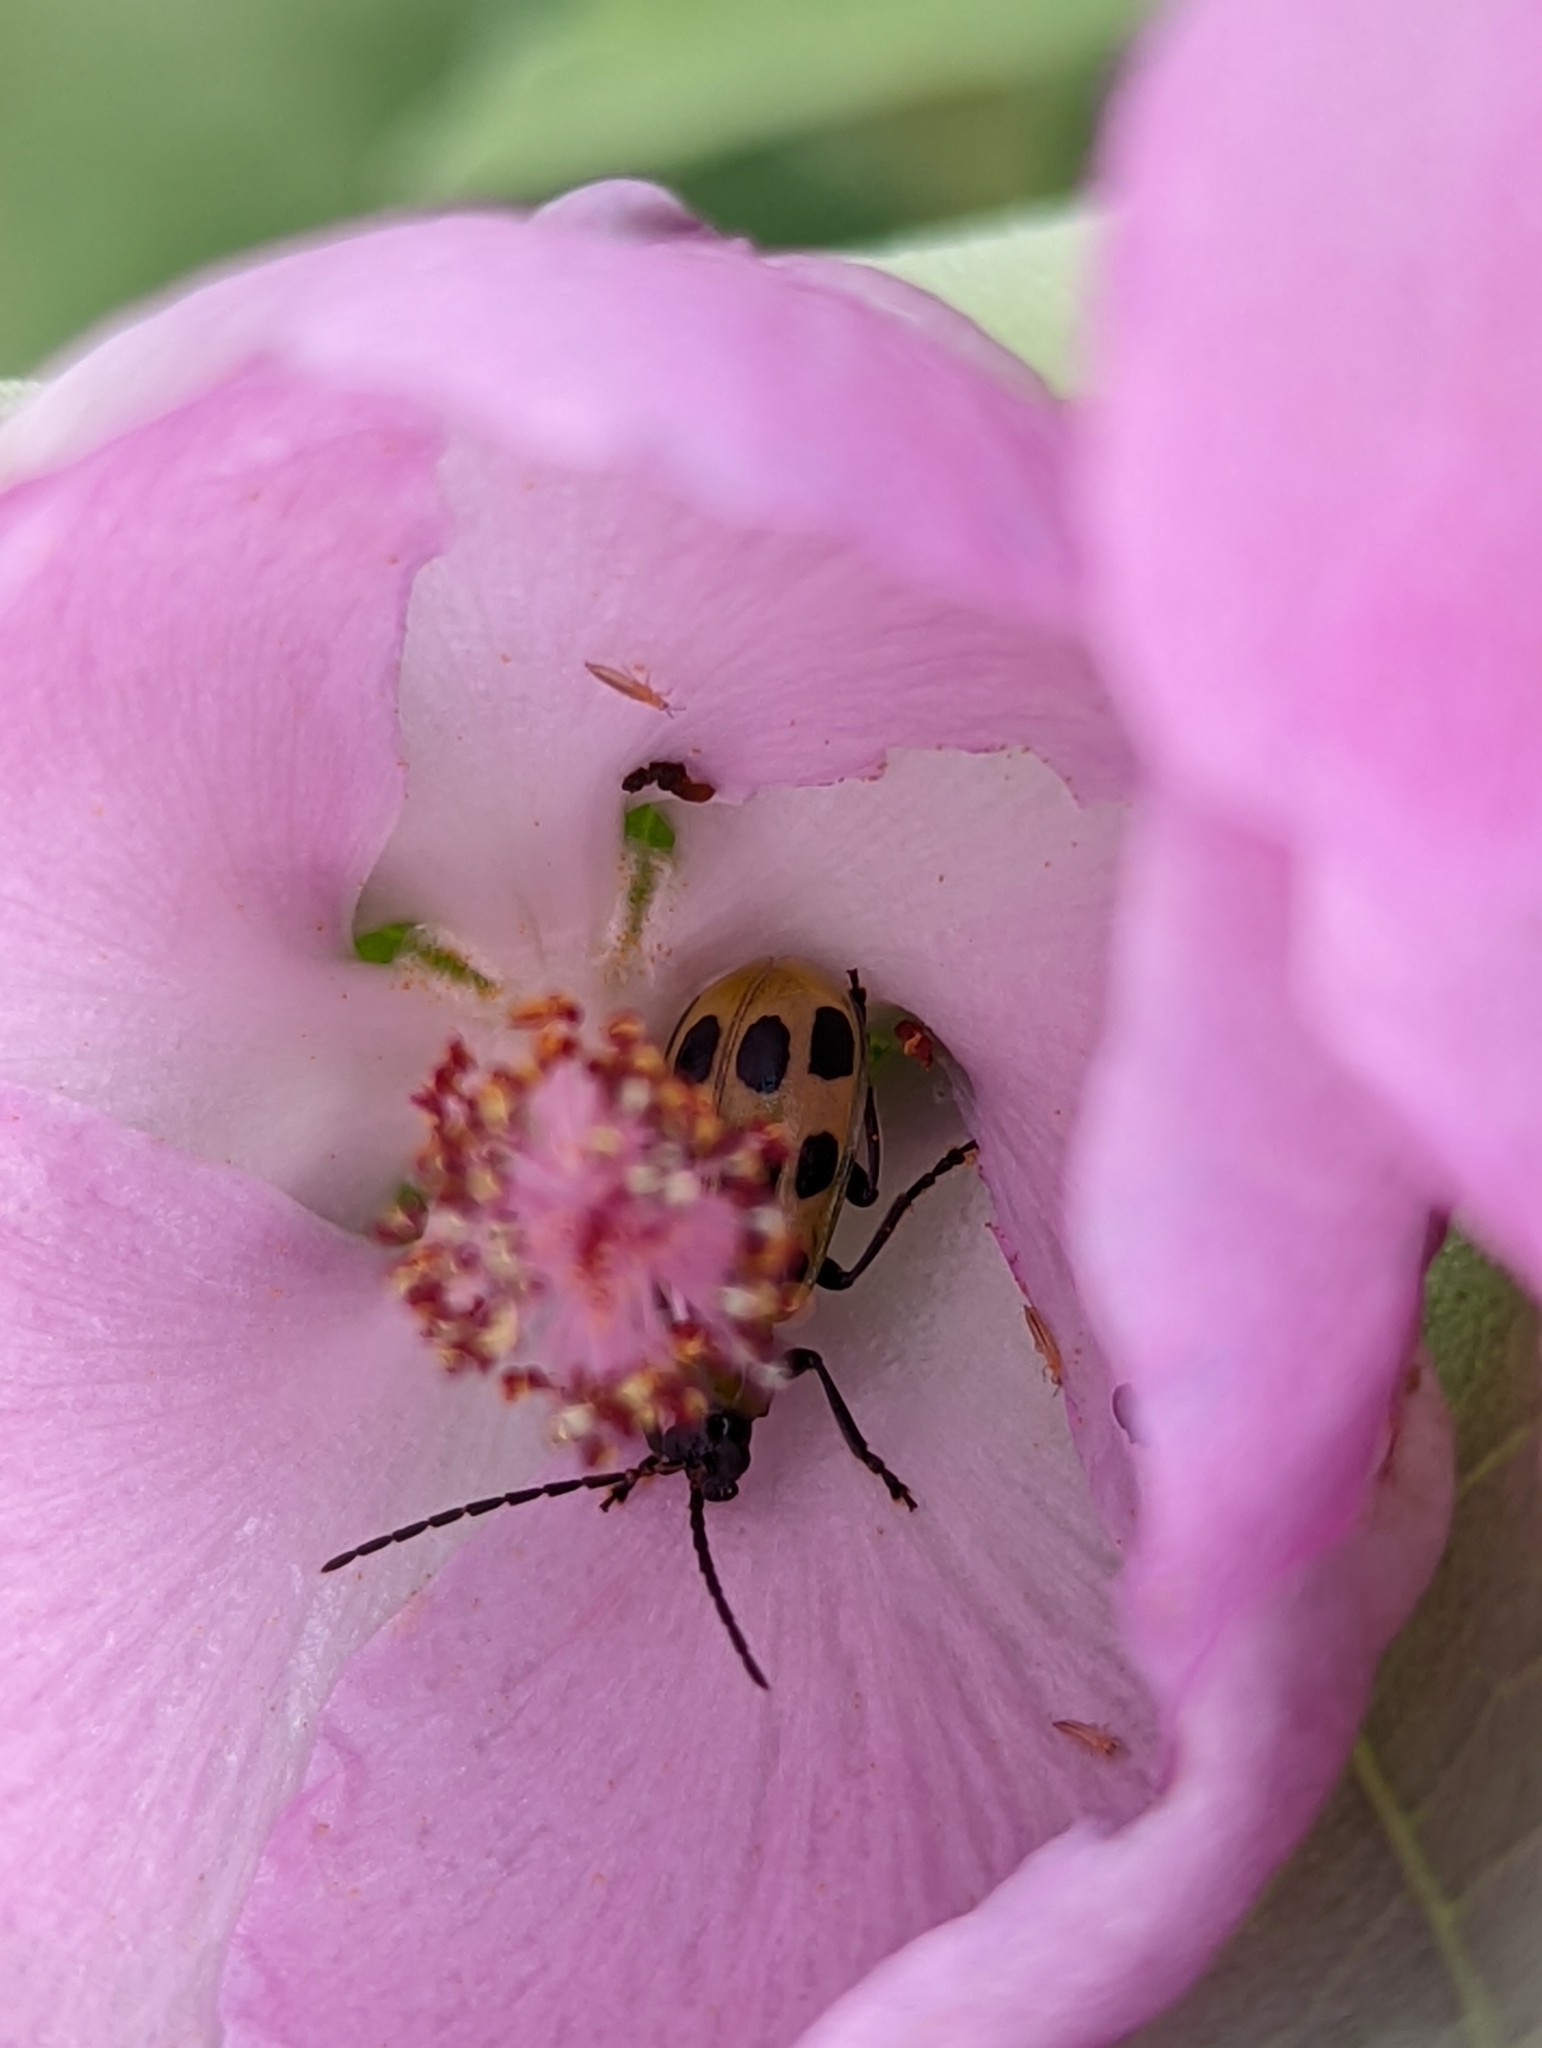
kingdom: Animalia
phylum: Arthropoda
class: Insecta
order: Coleoptera
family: Chrysomelidae
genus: Diabrotica
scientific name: Diabrotica undecimpunctata
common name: Spotted cucumber beetle
